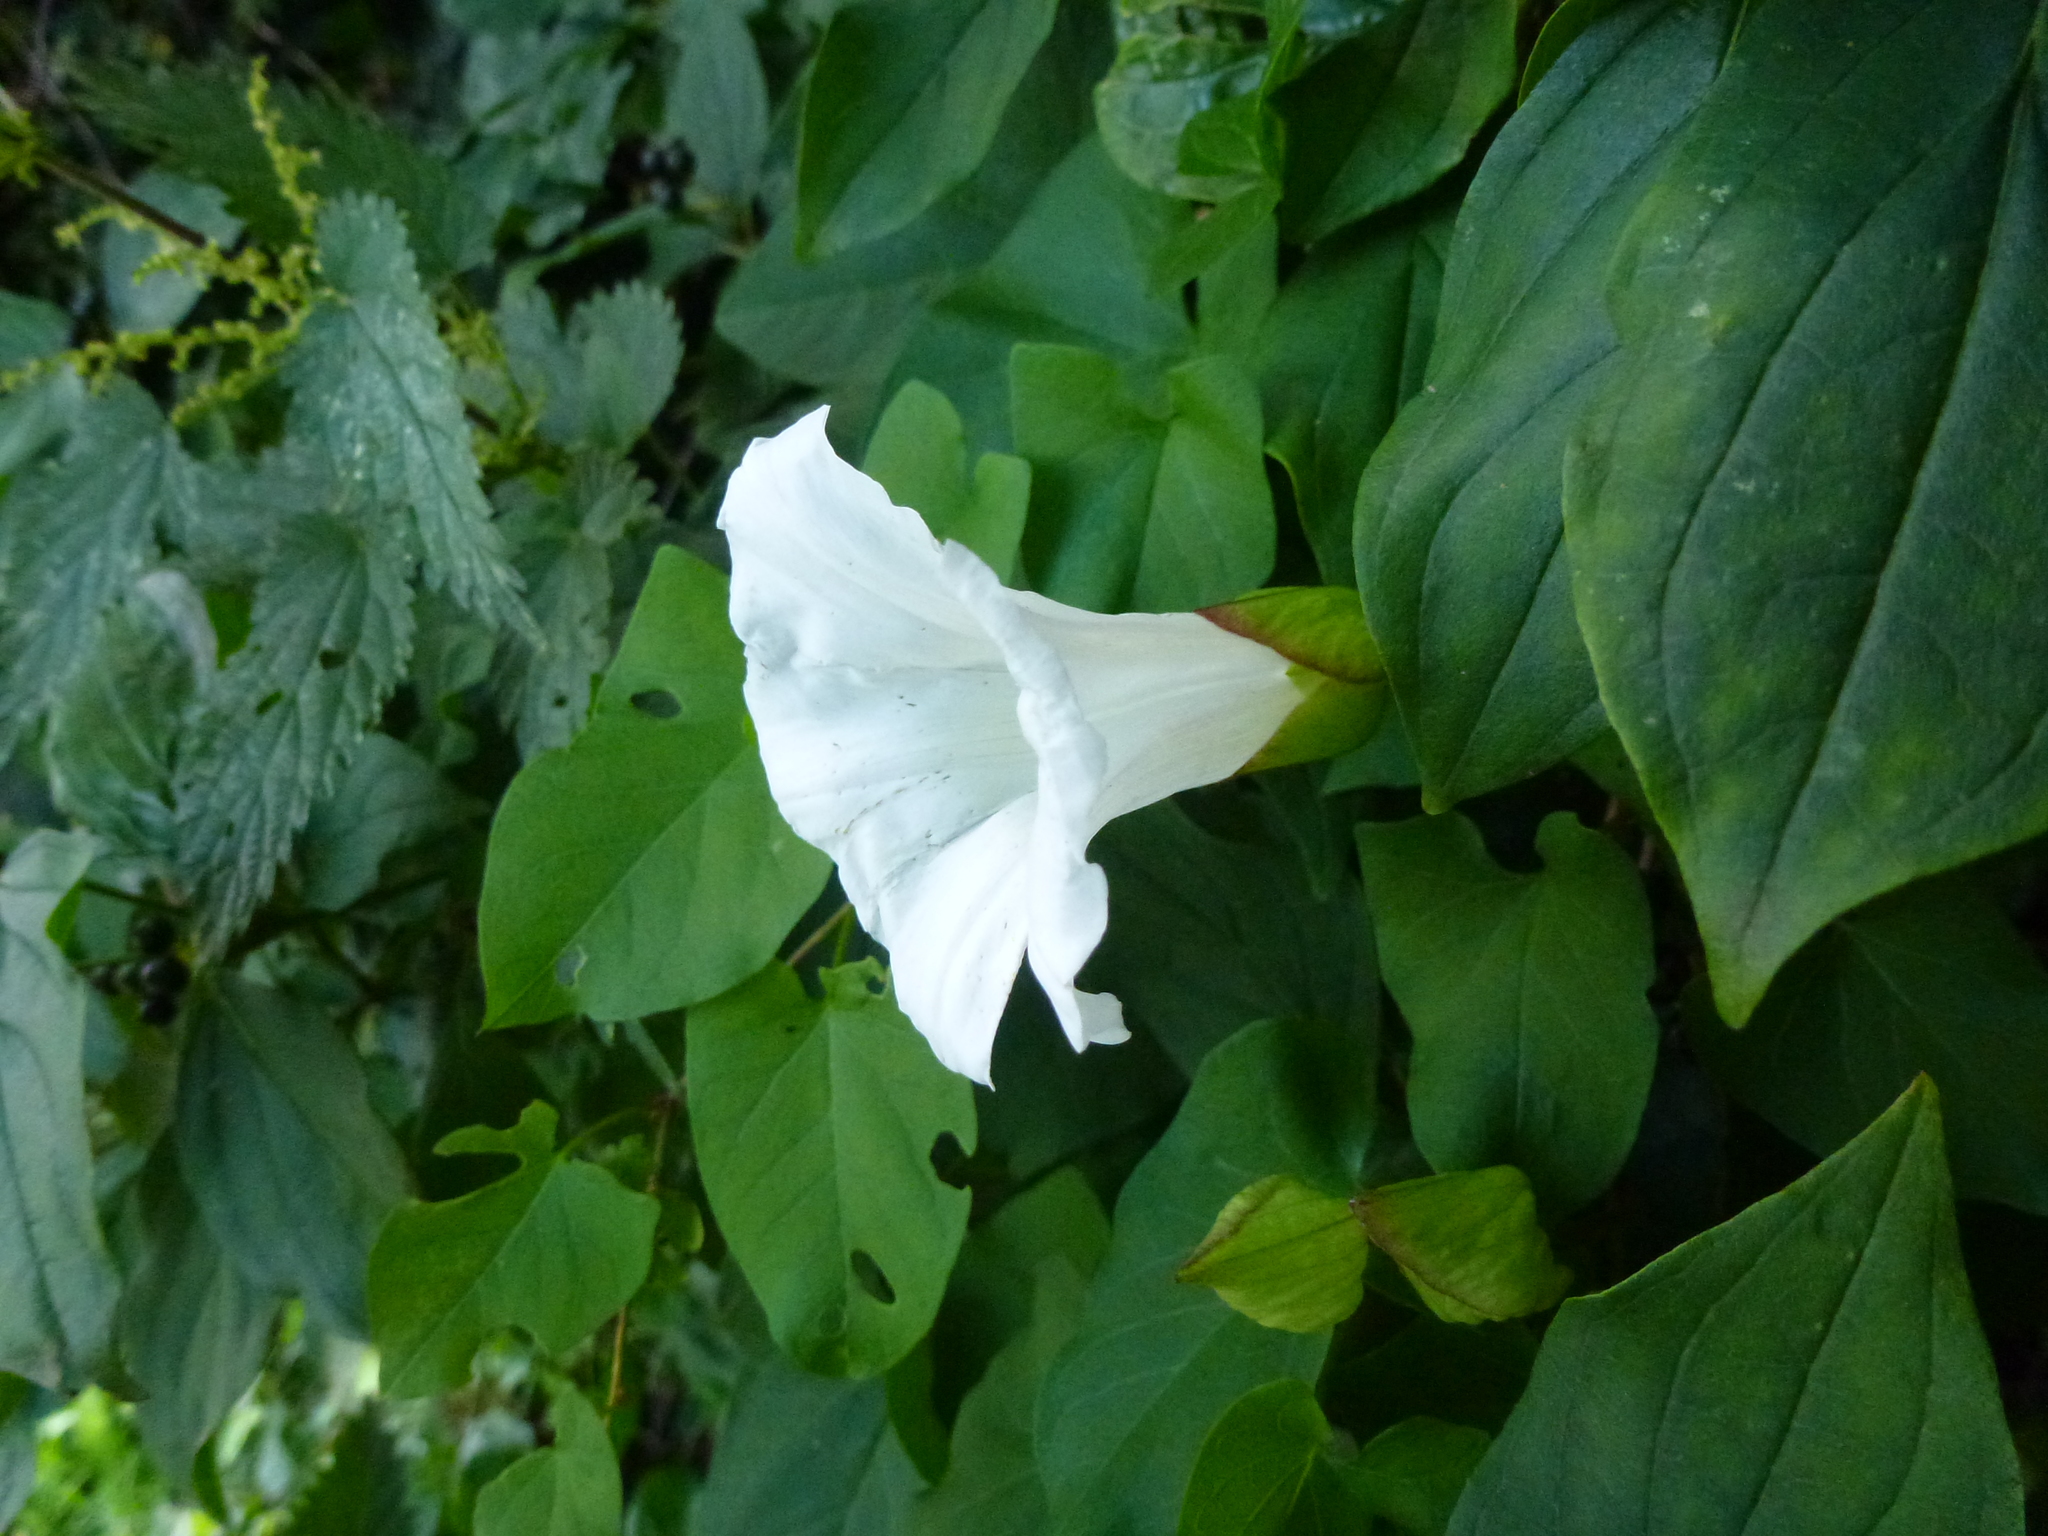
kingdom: Plantae
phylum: Tracheophyta
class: Magnoliopsida
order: Solanales
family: Convolvulaceae
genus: Calystegia
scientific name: Calystegia silvatica
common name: Large bindweed
